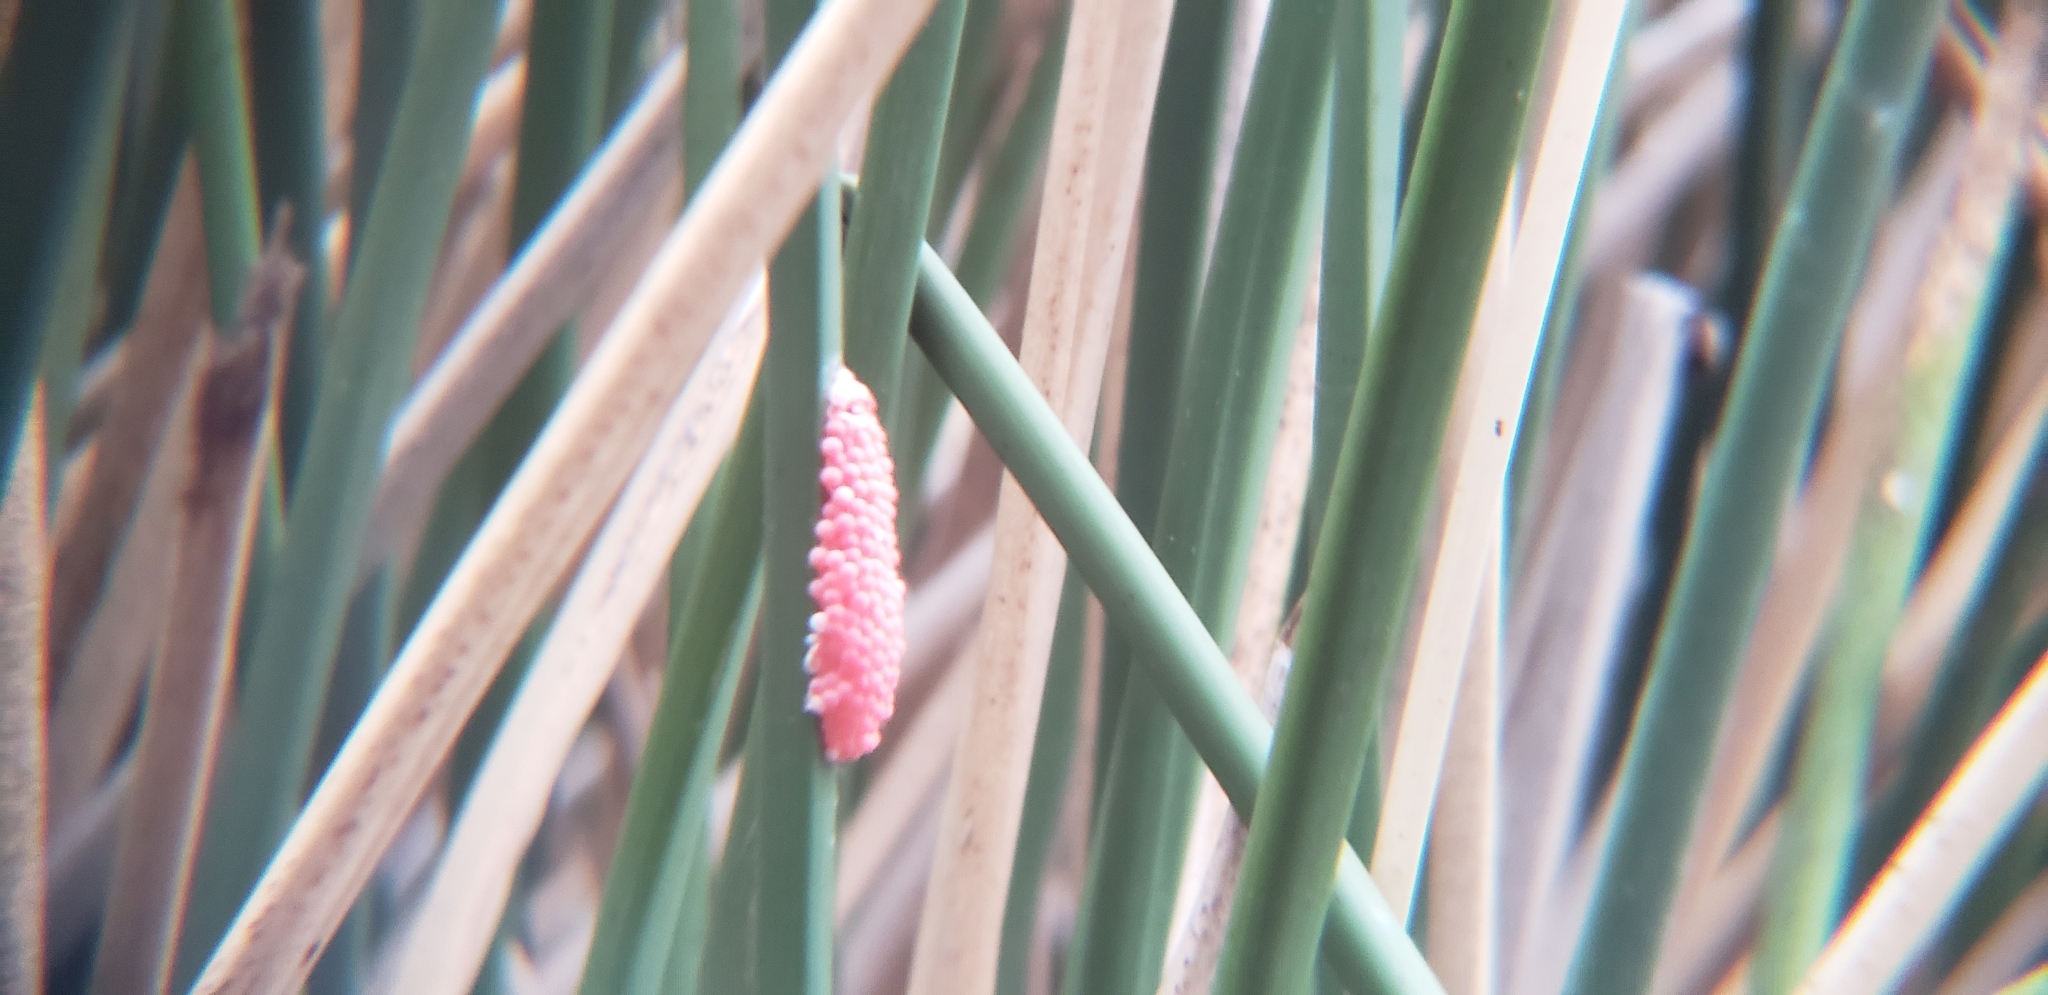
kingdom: Animalia
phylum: Mollusca
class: Gastropoda
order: Architaenioglossa
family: Ampullariidae
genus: Pomacea
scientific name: Pomacea canaliculata
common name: Channeled applesnail
